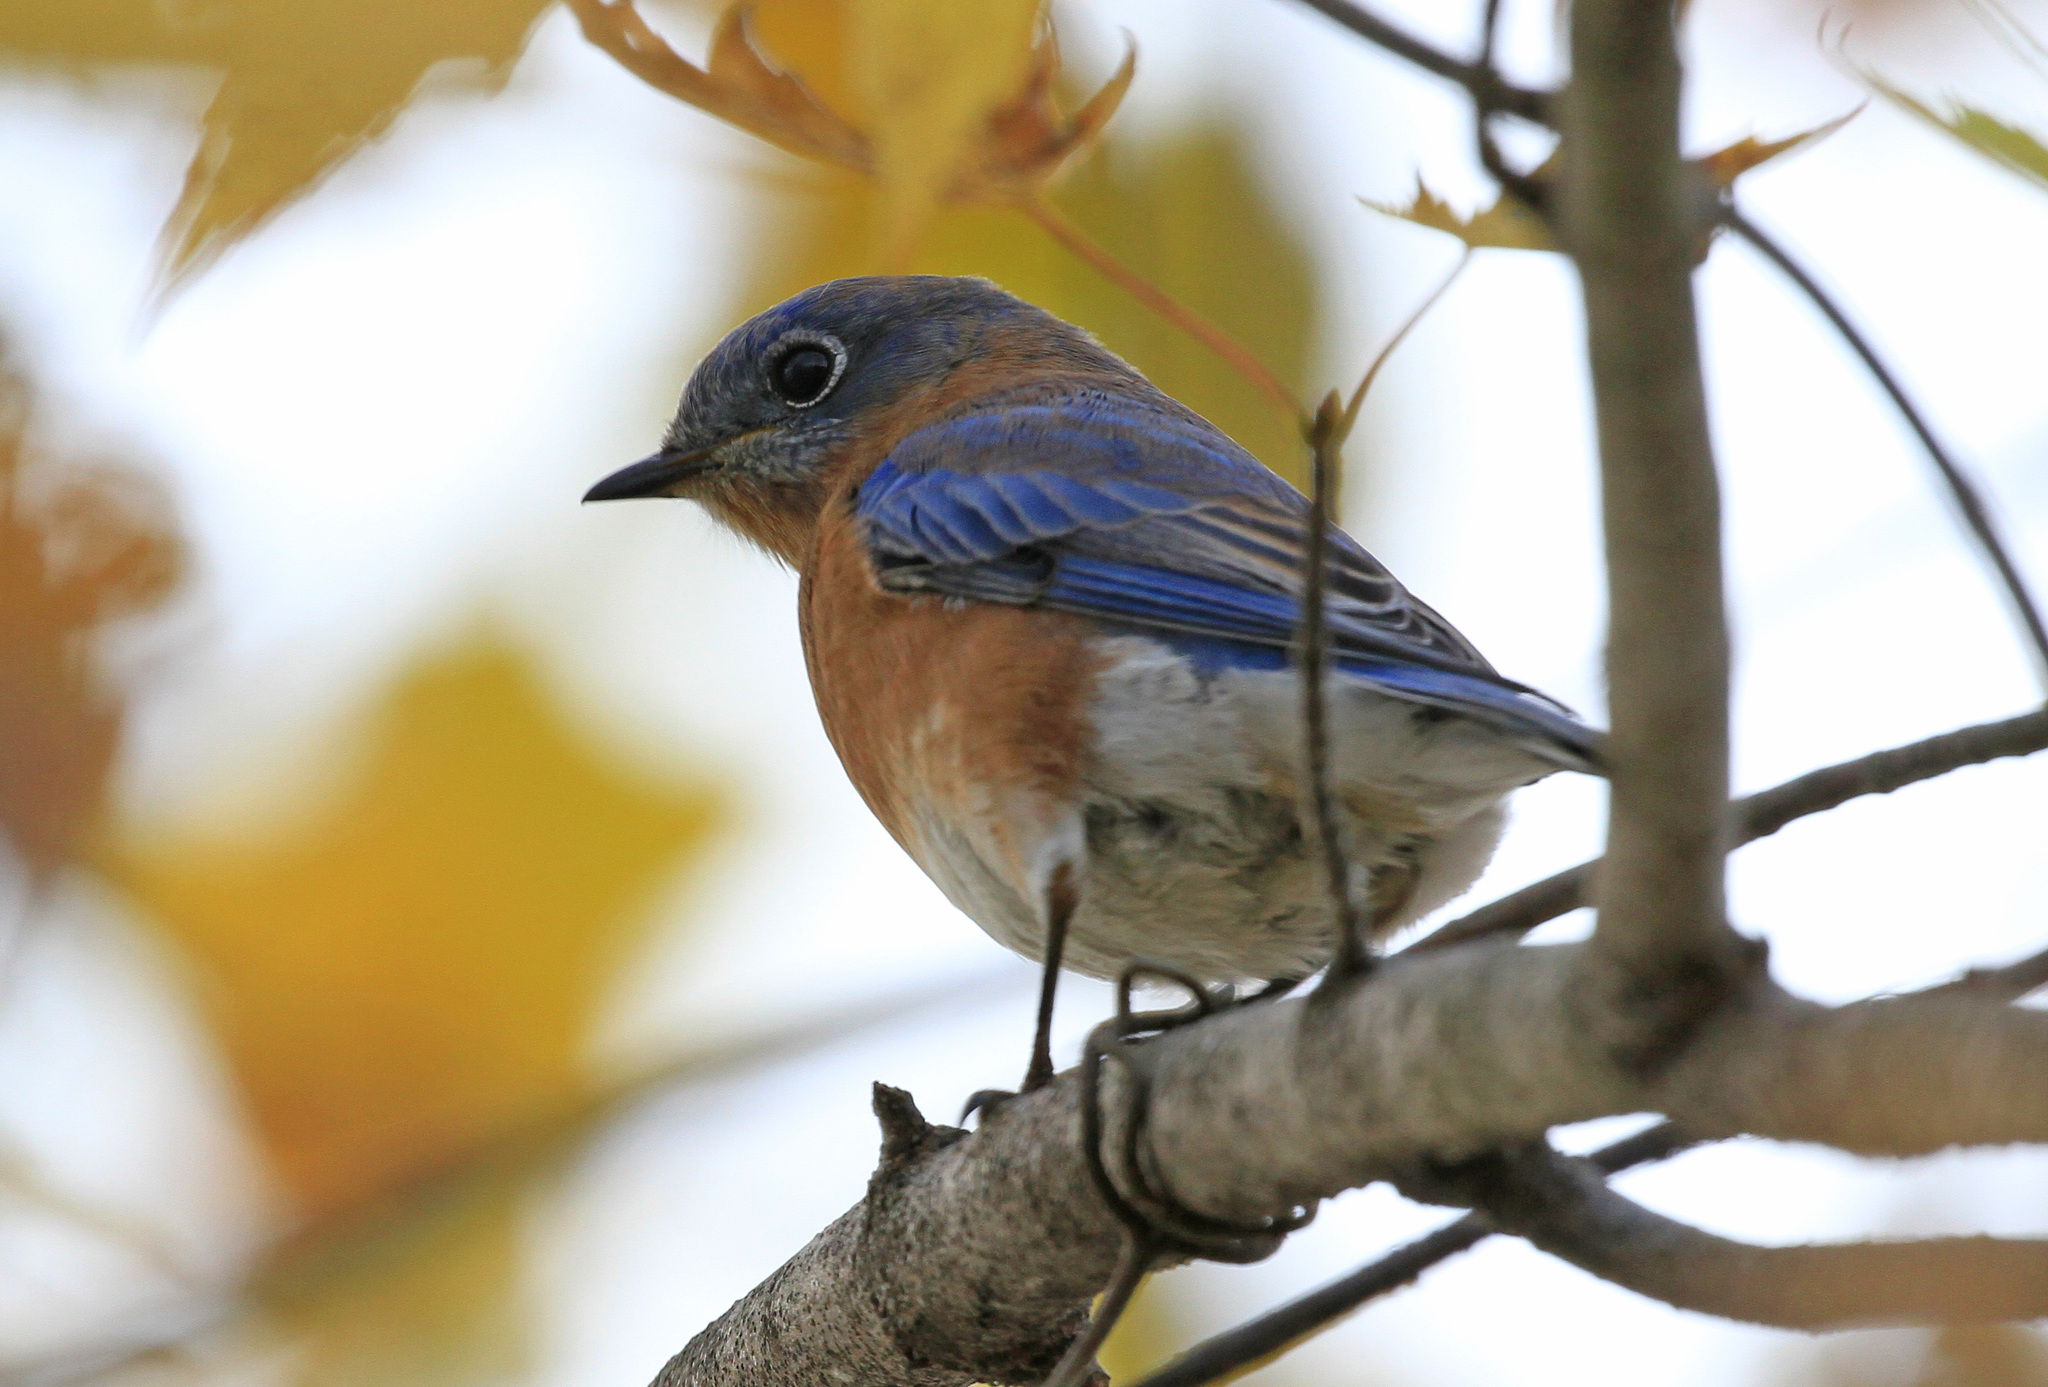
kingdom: Animalia
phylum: Chordata
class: Aves
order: Passeriformes
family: Turdidae
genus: Sialia
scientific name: Sialia sialis
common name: Eastern bluebird
